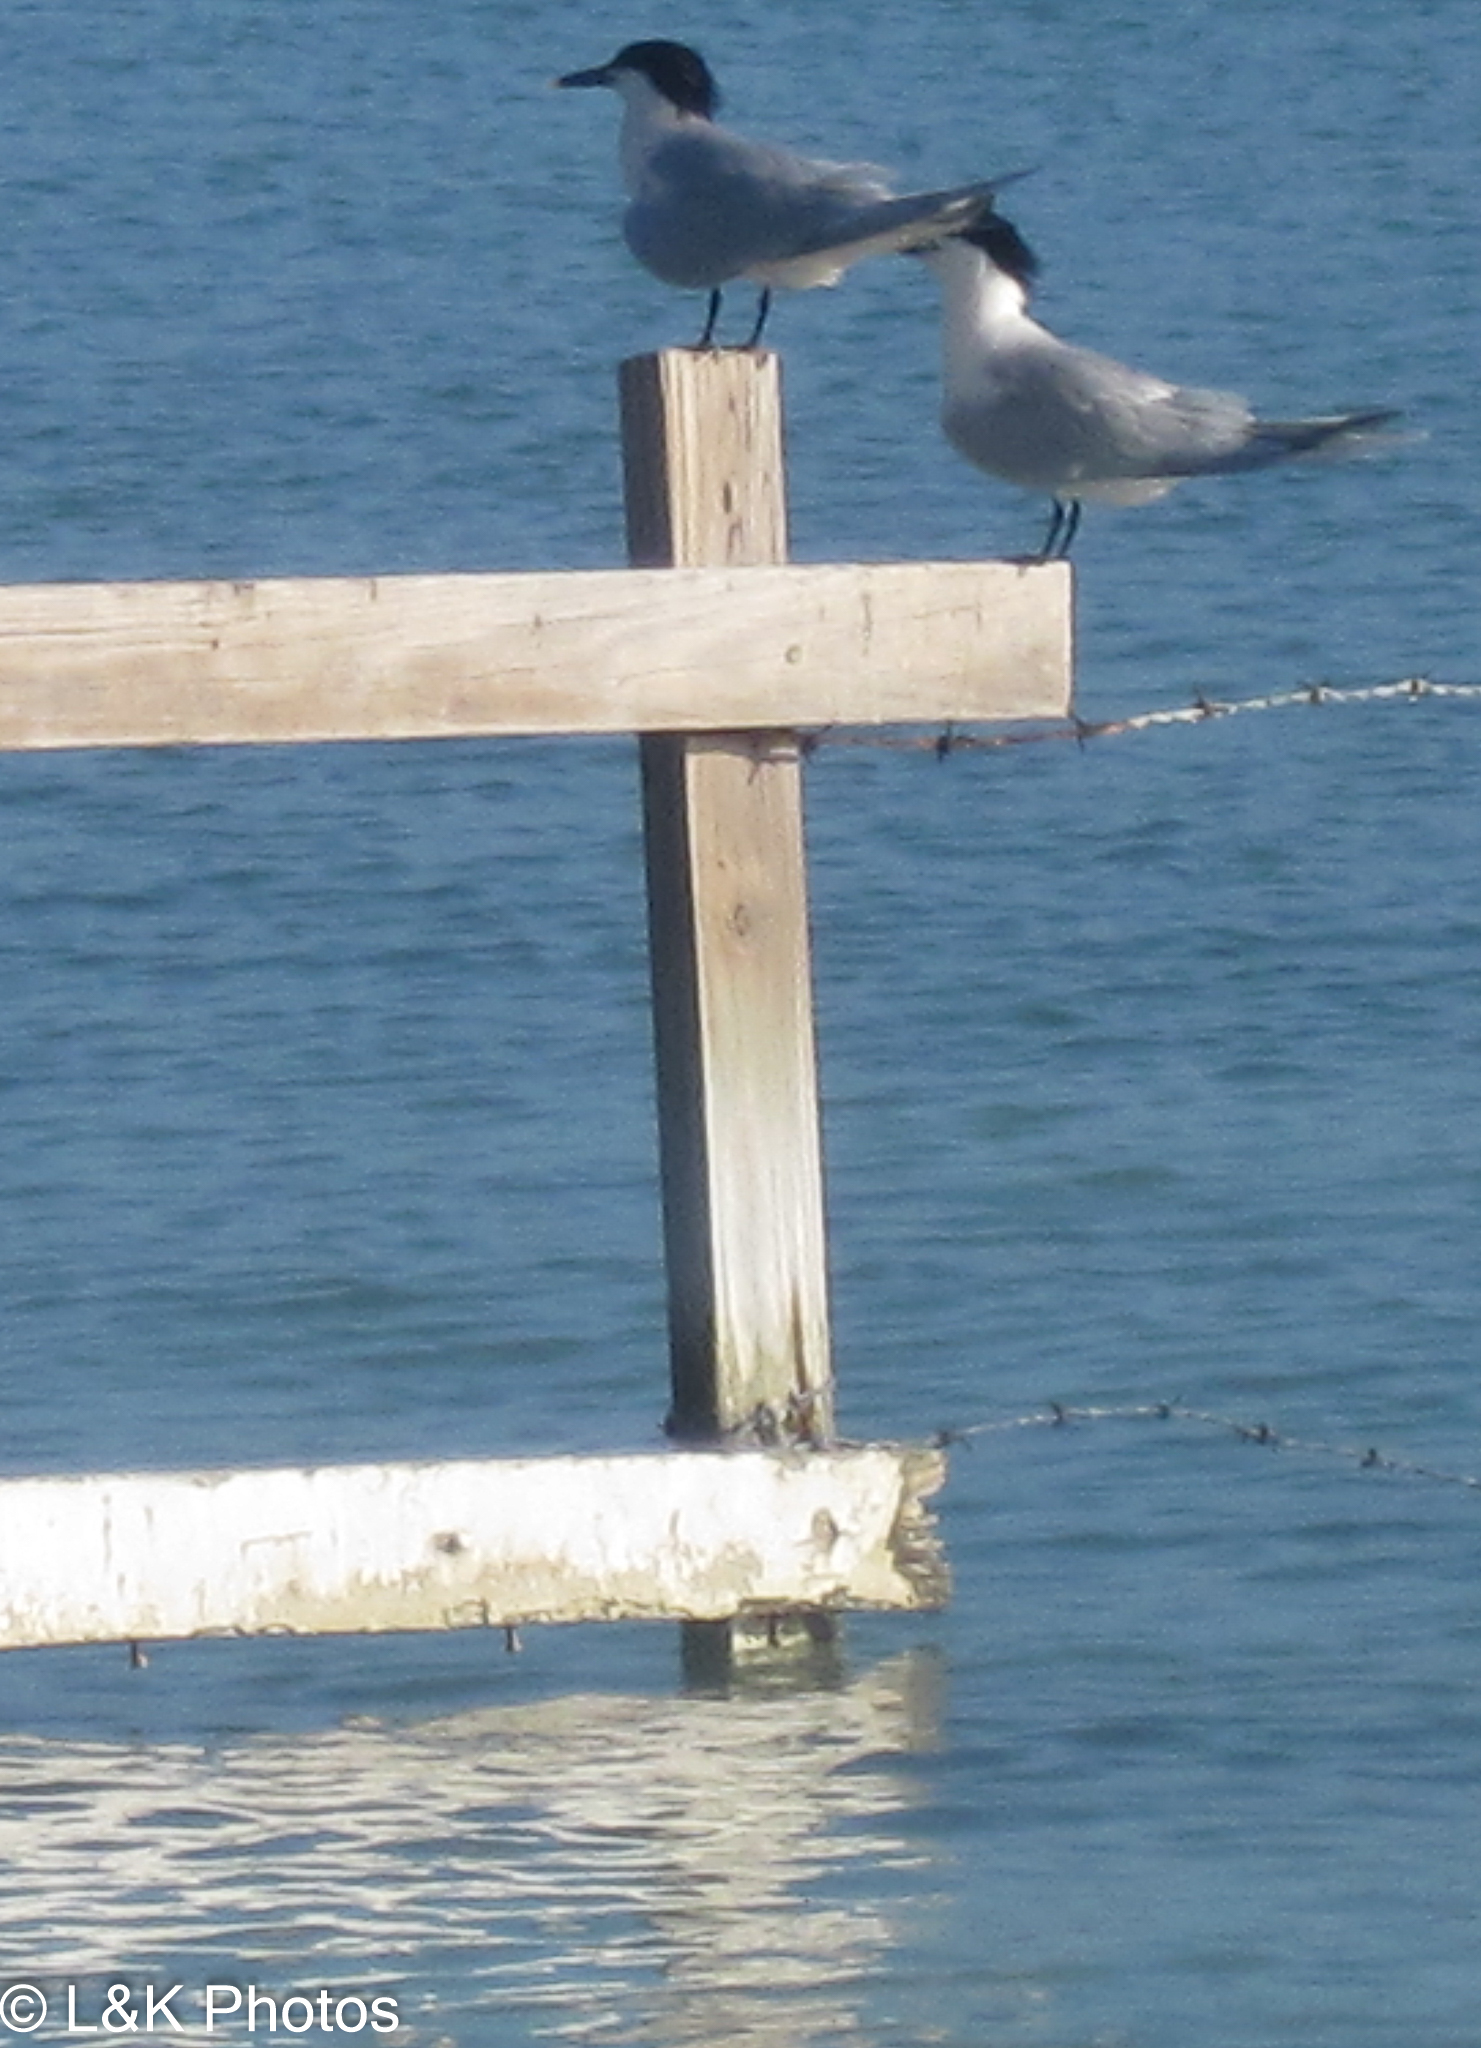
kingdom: Animalia
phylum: Chordata
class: Aves
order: Charadriiformes
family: Laridae
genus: Thalasseus
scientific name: Thalasseus sandvicensis
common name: Sandwich tern
